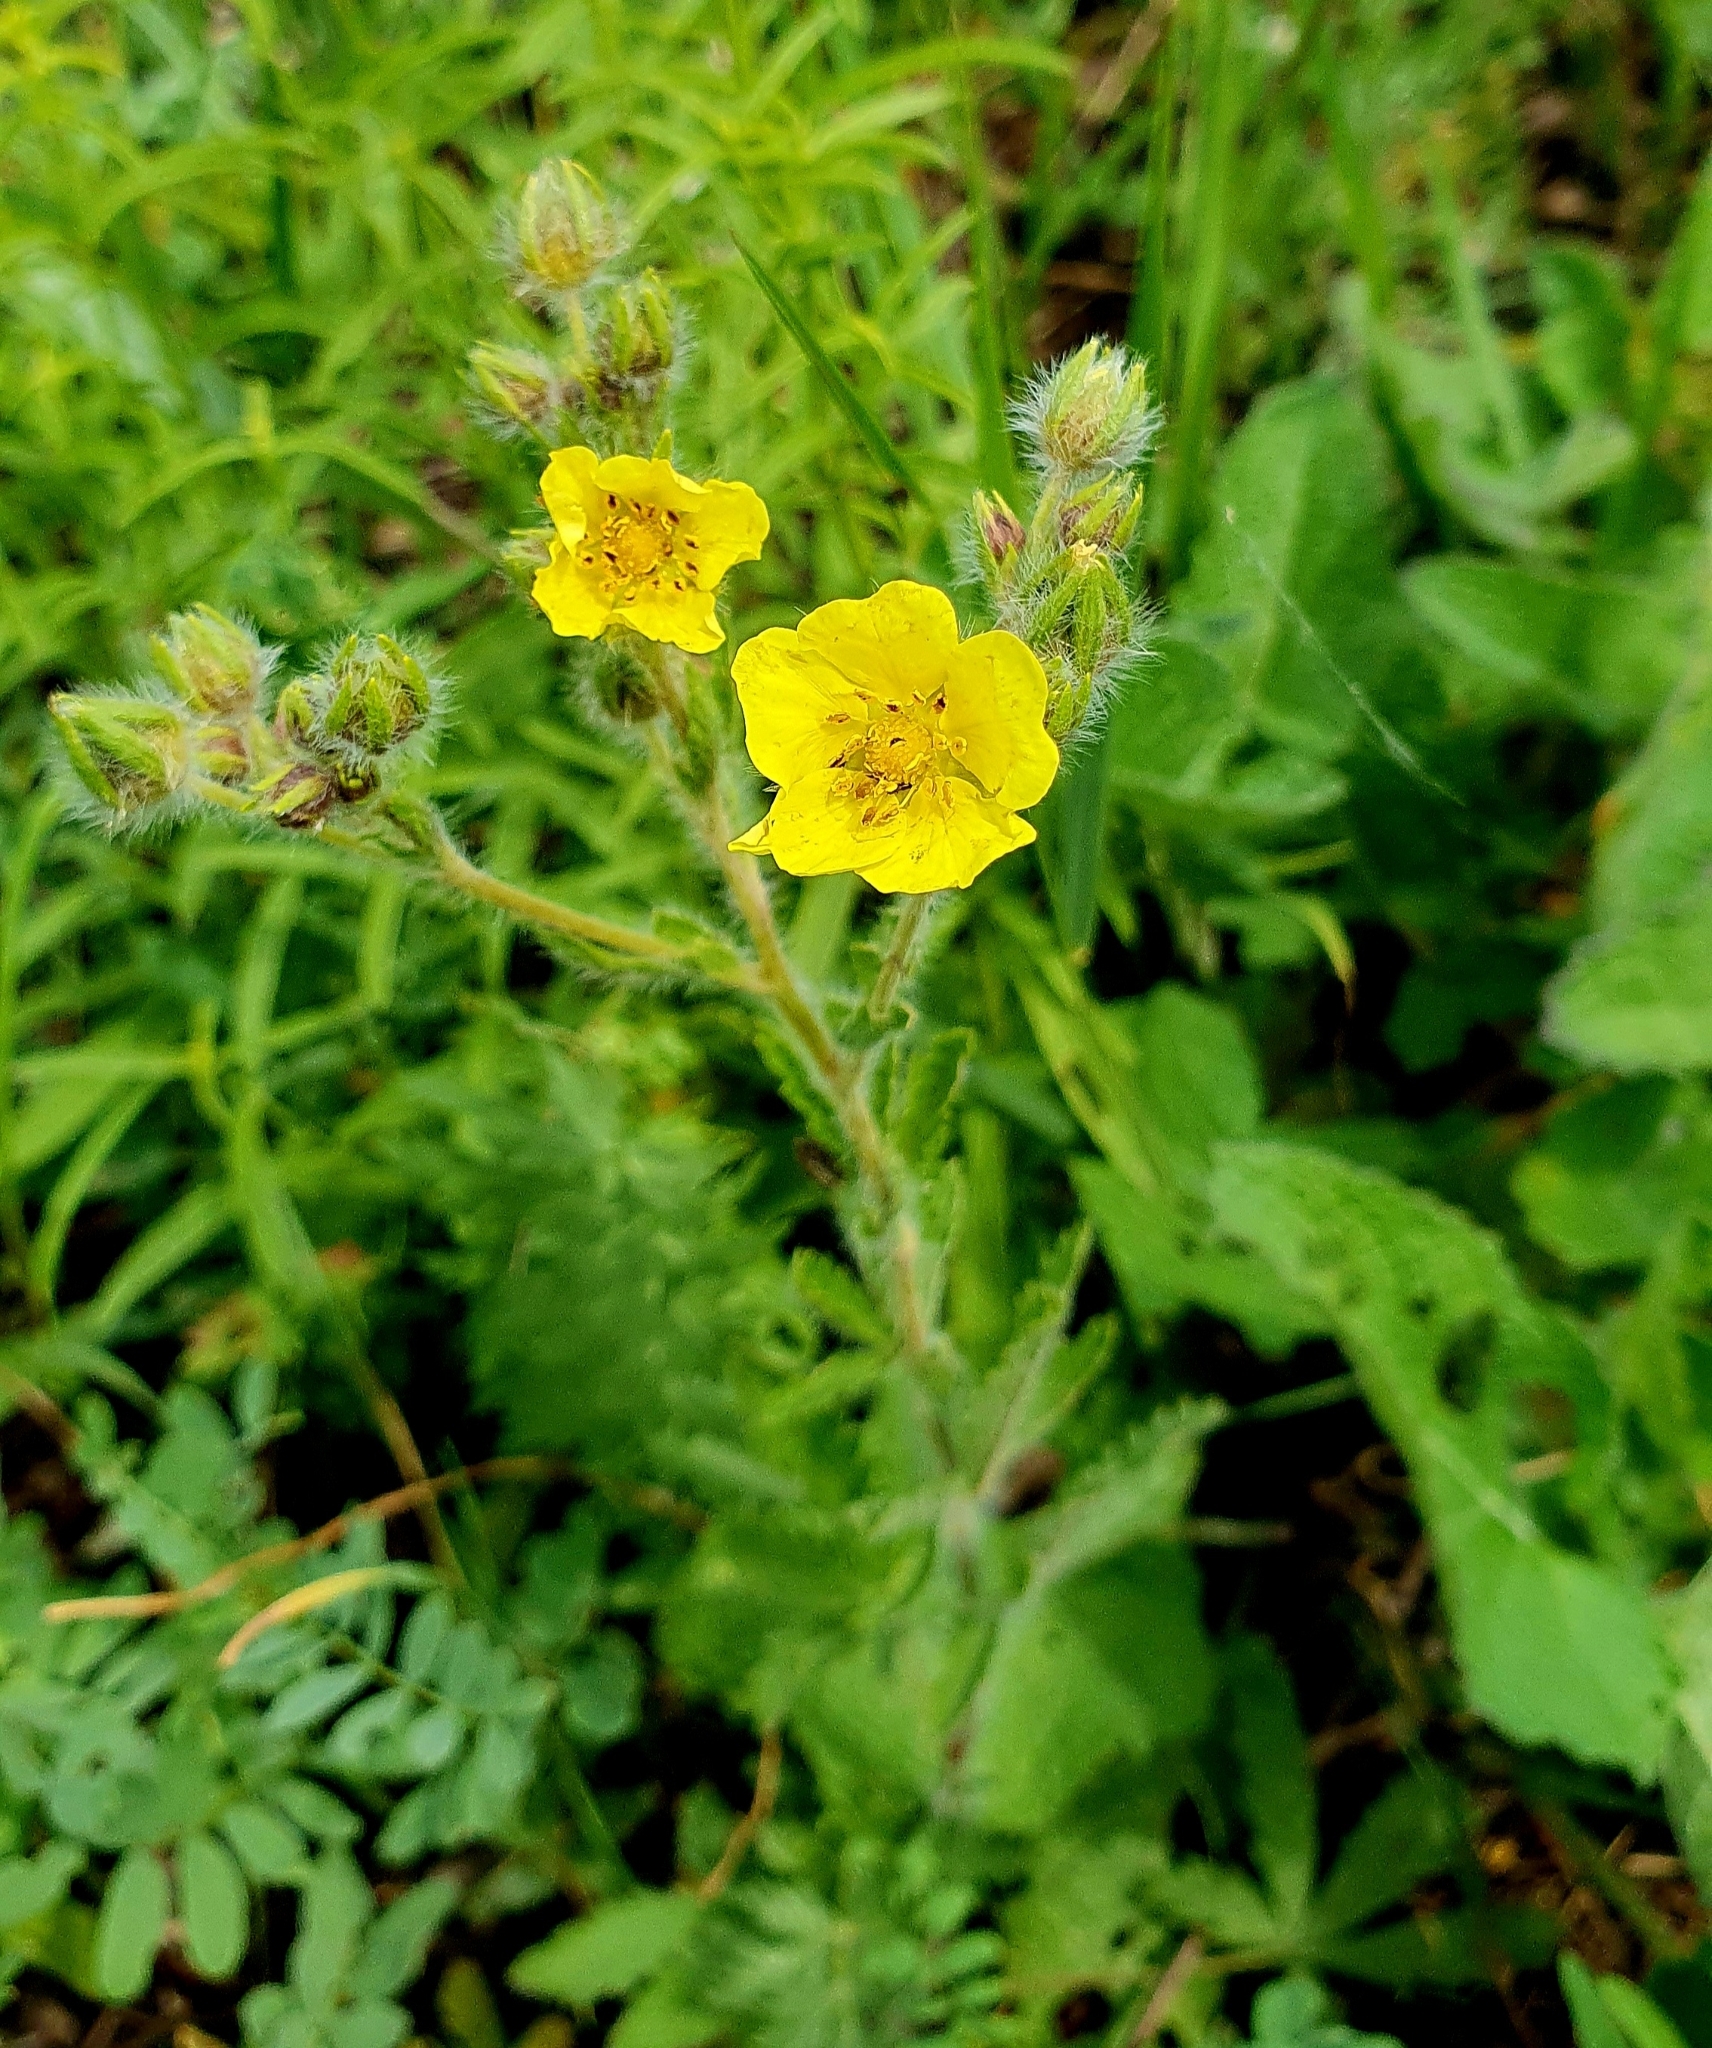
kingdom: Plantae
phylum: Tracheophyta
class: Magnoliopsida
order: Rosales
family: Rosaceae
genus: Potentilla
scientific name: Potentilla recta
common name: Sulphur cinquefoil
